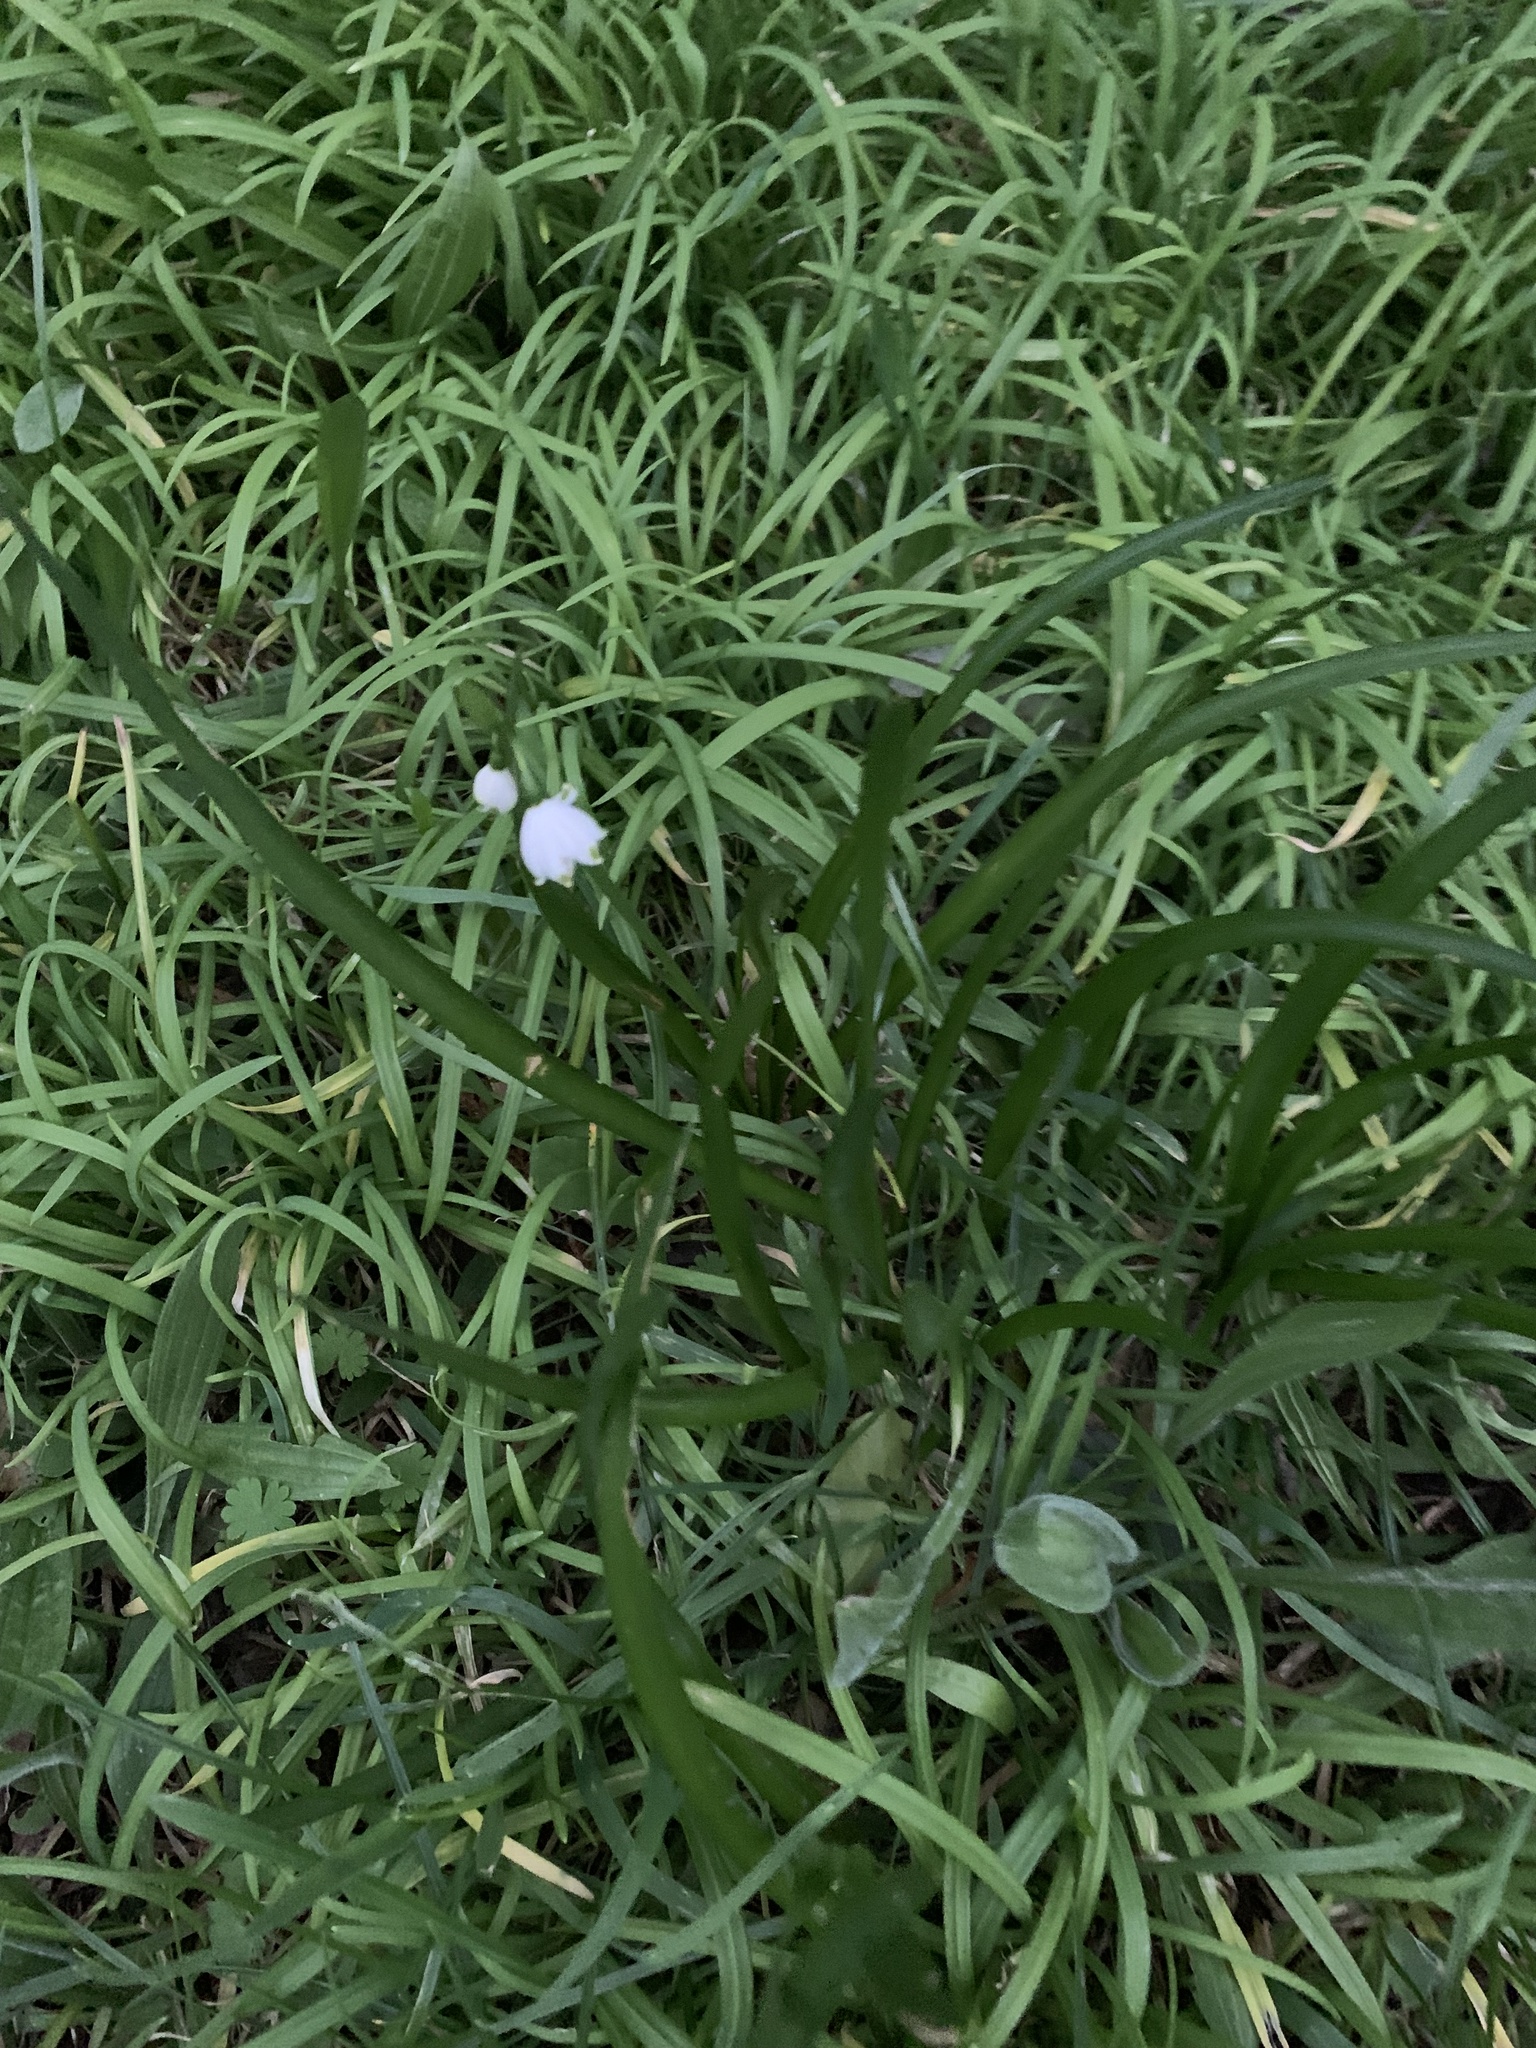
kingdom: Plantae
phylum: Tracheophyta
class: Liliopsida
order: Asparagales
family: Amaryllidaceae
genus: Leucojum
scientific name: Leucojum aestivum
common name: Summer snowflake
